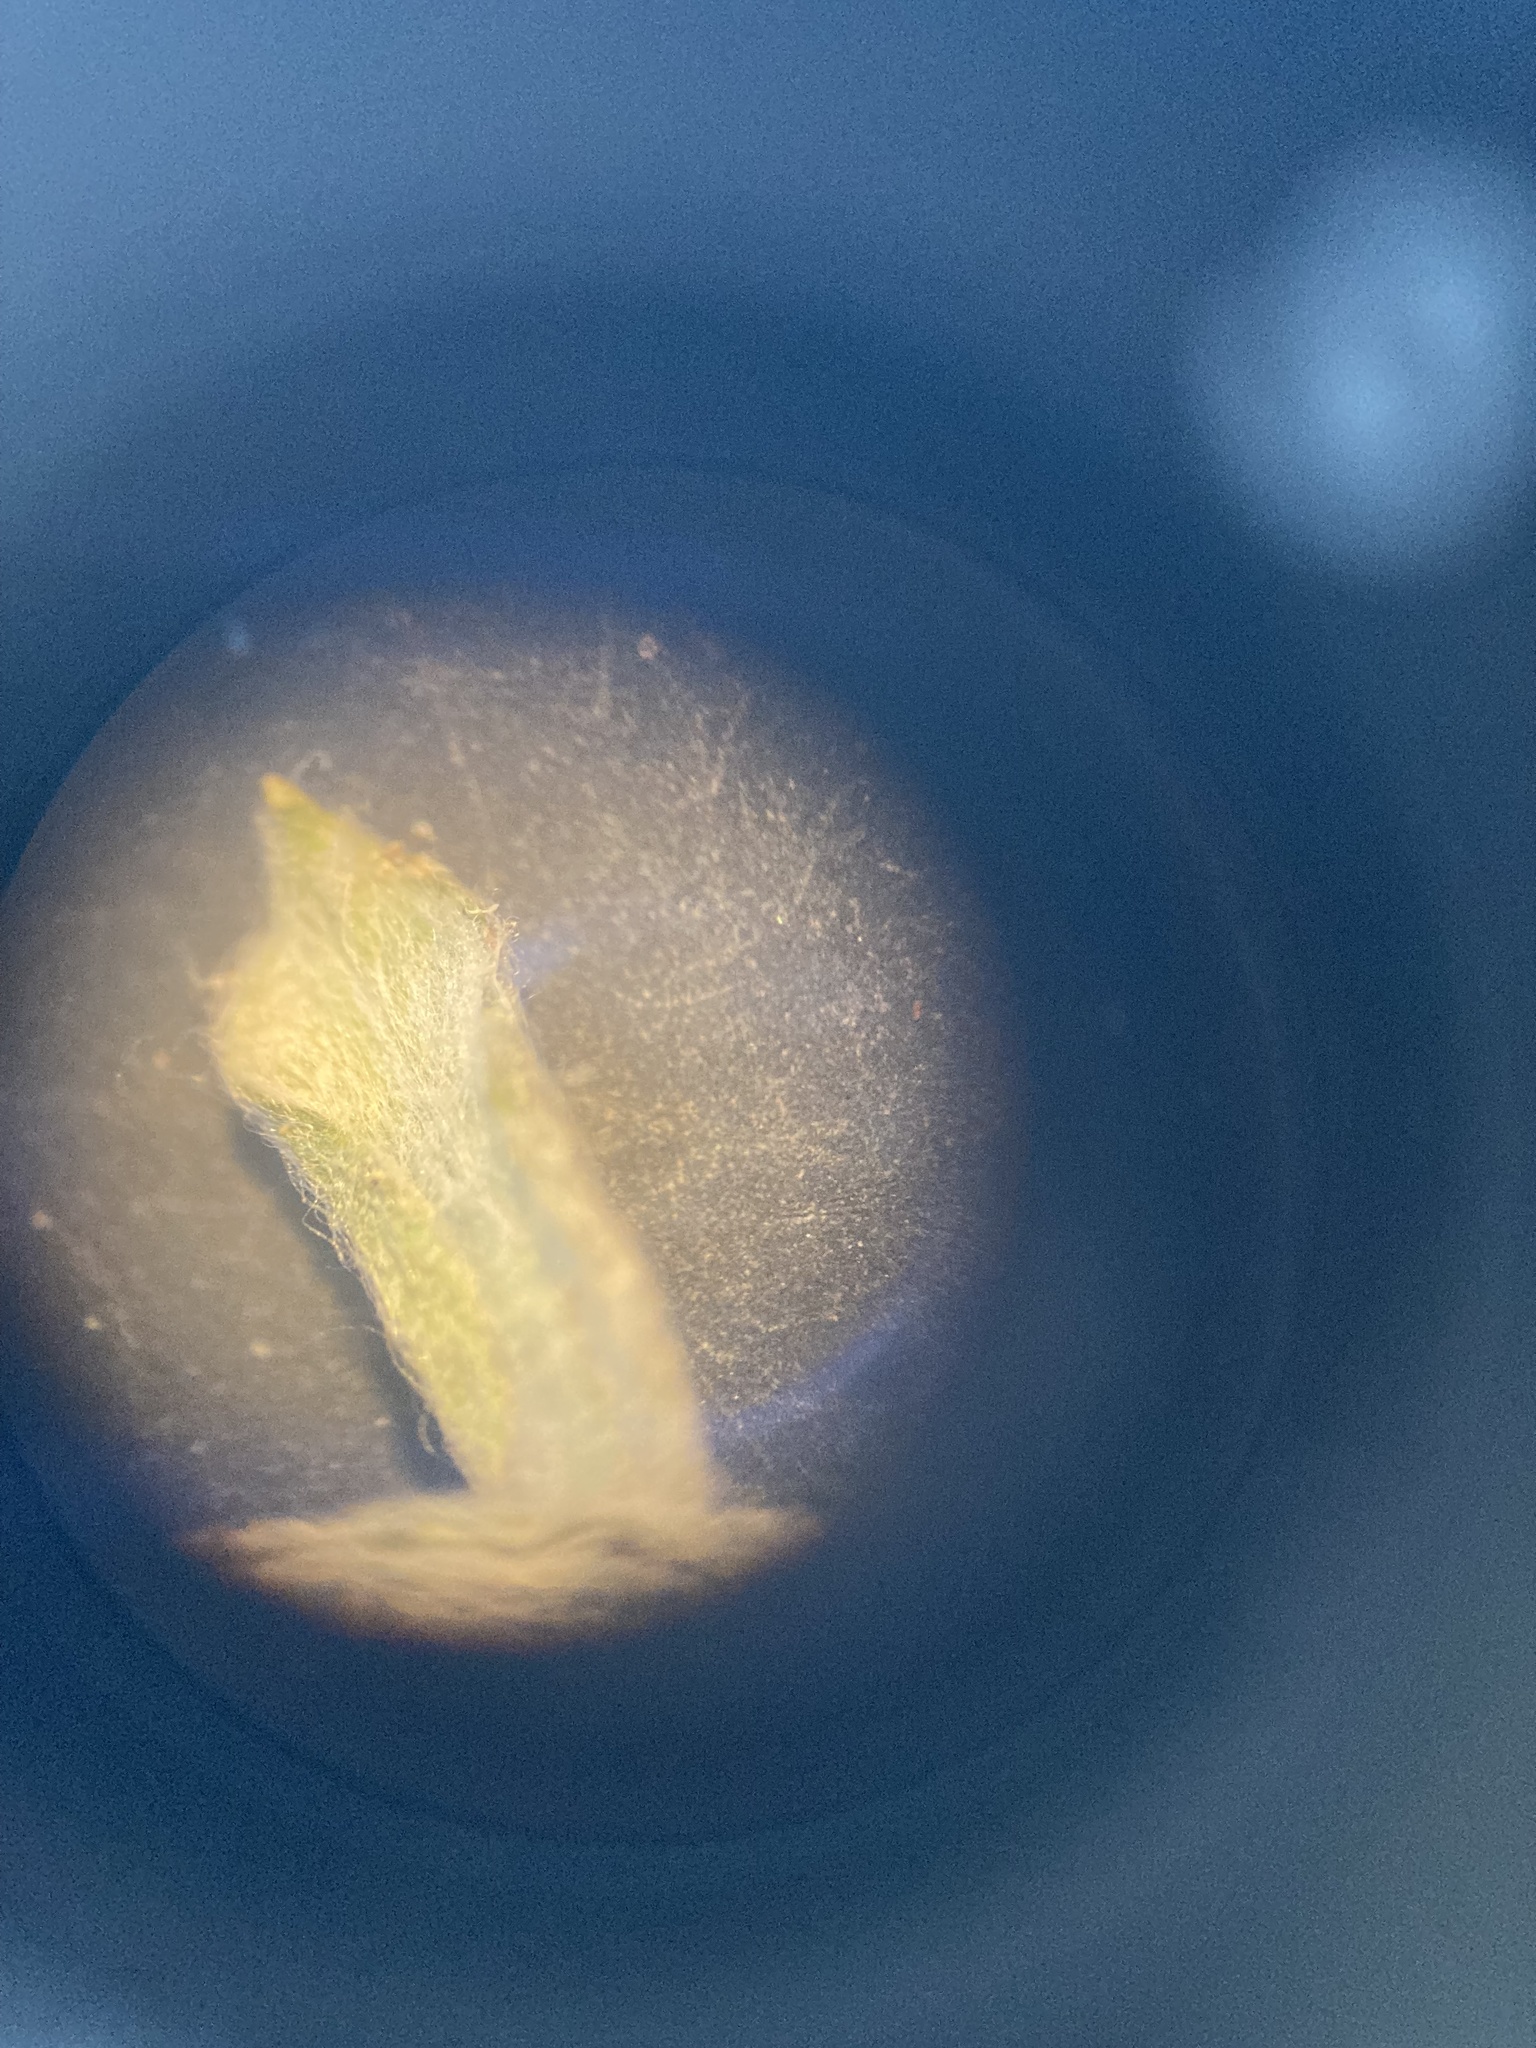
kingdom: Plantae
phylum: Tracheophyta
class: Magnoliopsida
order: Asterales
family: Asteraceae
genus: Filago
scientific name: Filago pyramidata
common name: Broad-leaved cudweed
